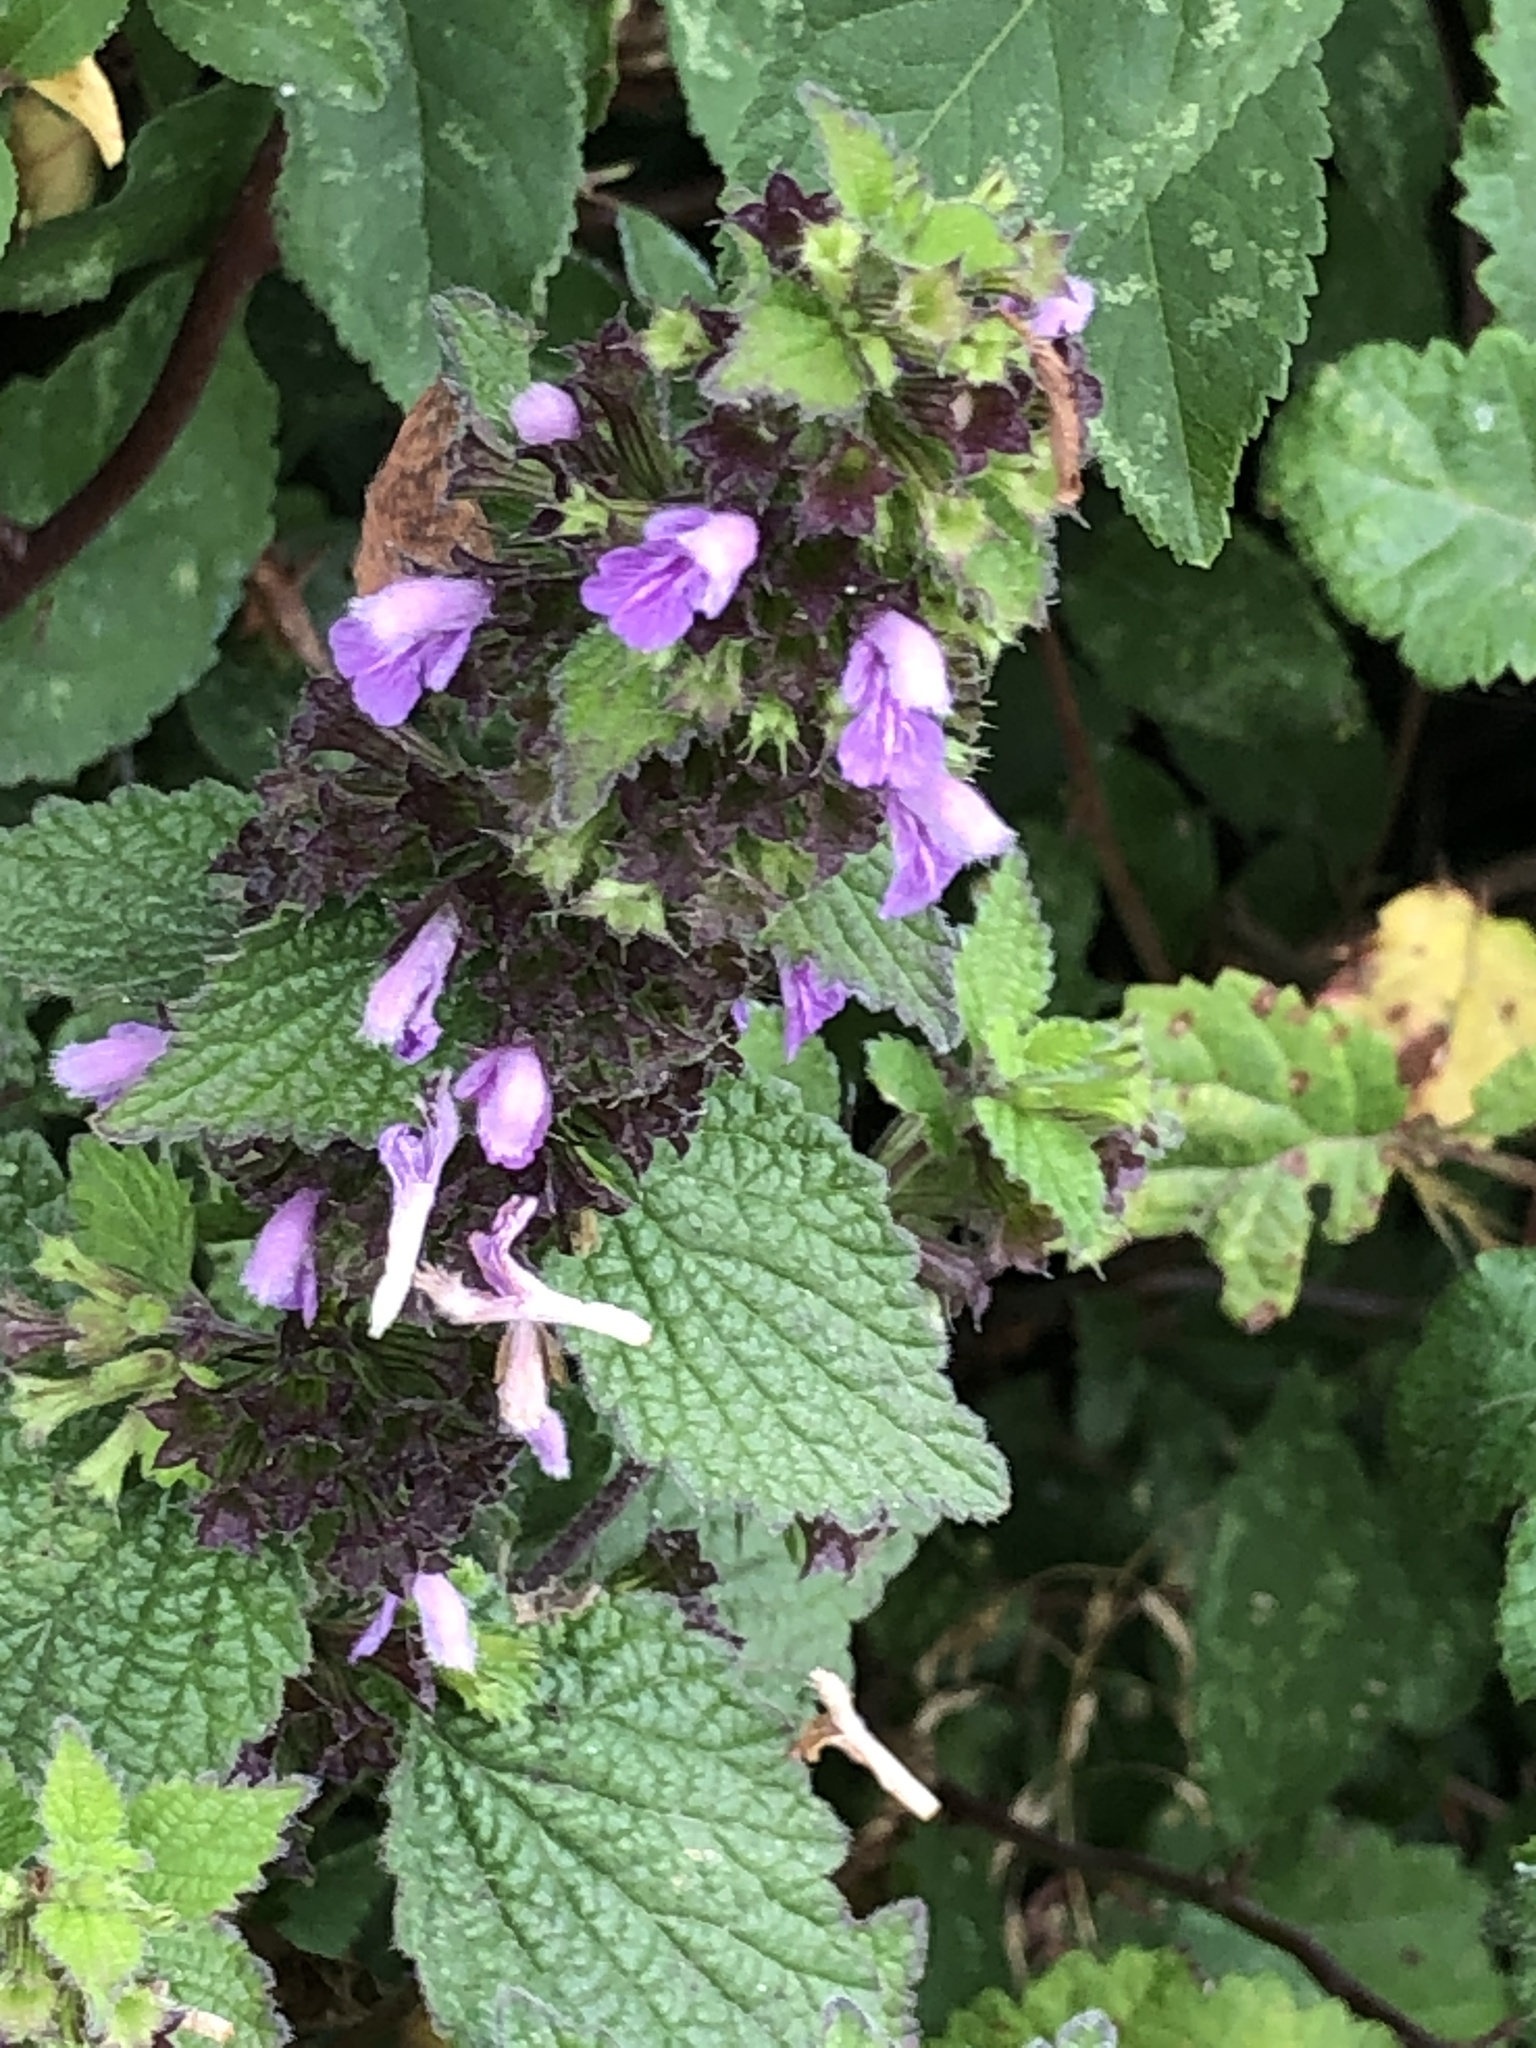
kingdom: Plantae
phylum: Tracheophyta
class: Magnoliopsida
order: Lamiales
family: Lamiaceae
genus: Ballota
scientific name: Ballota nigra
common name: Black horehound
